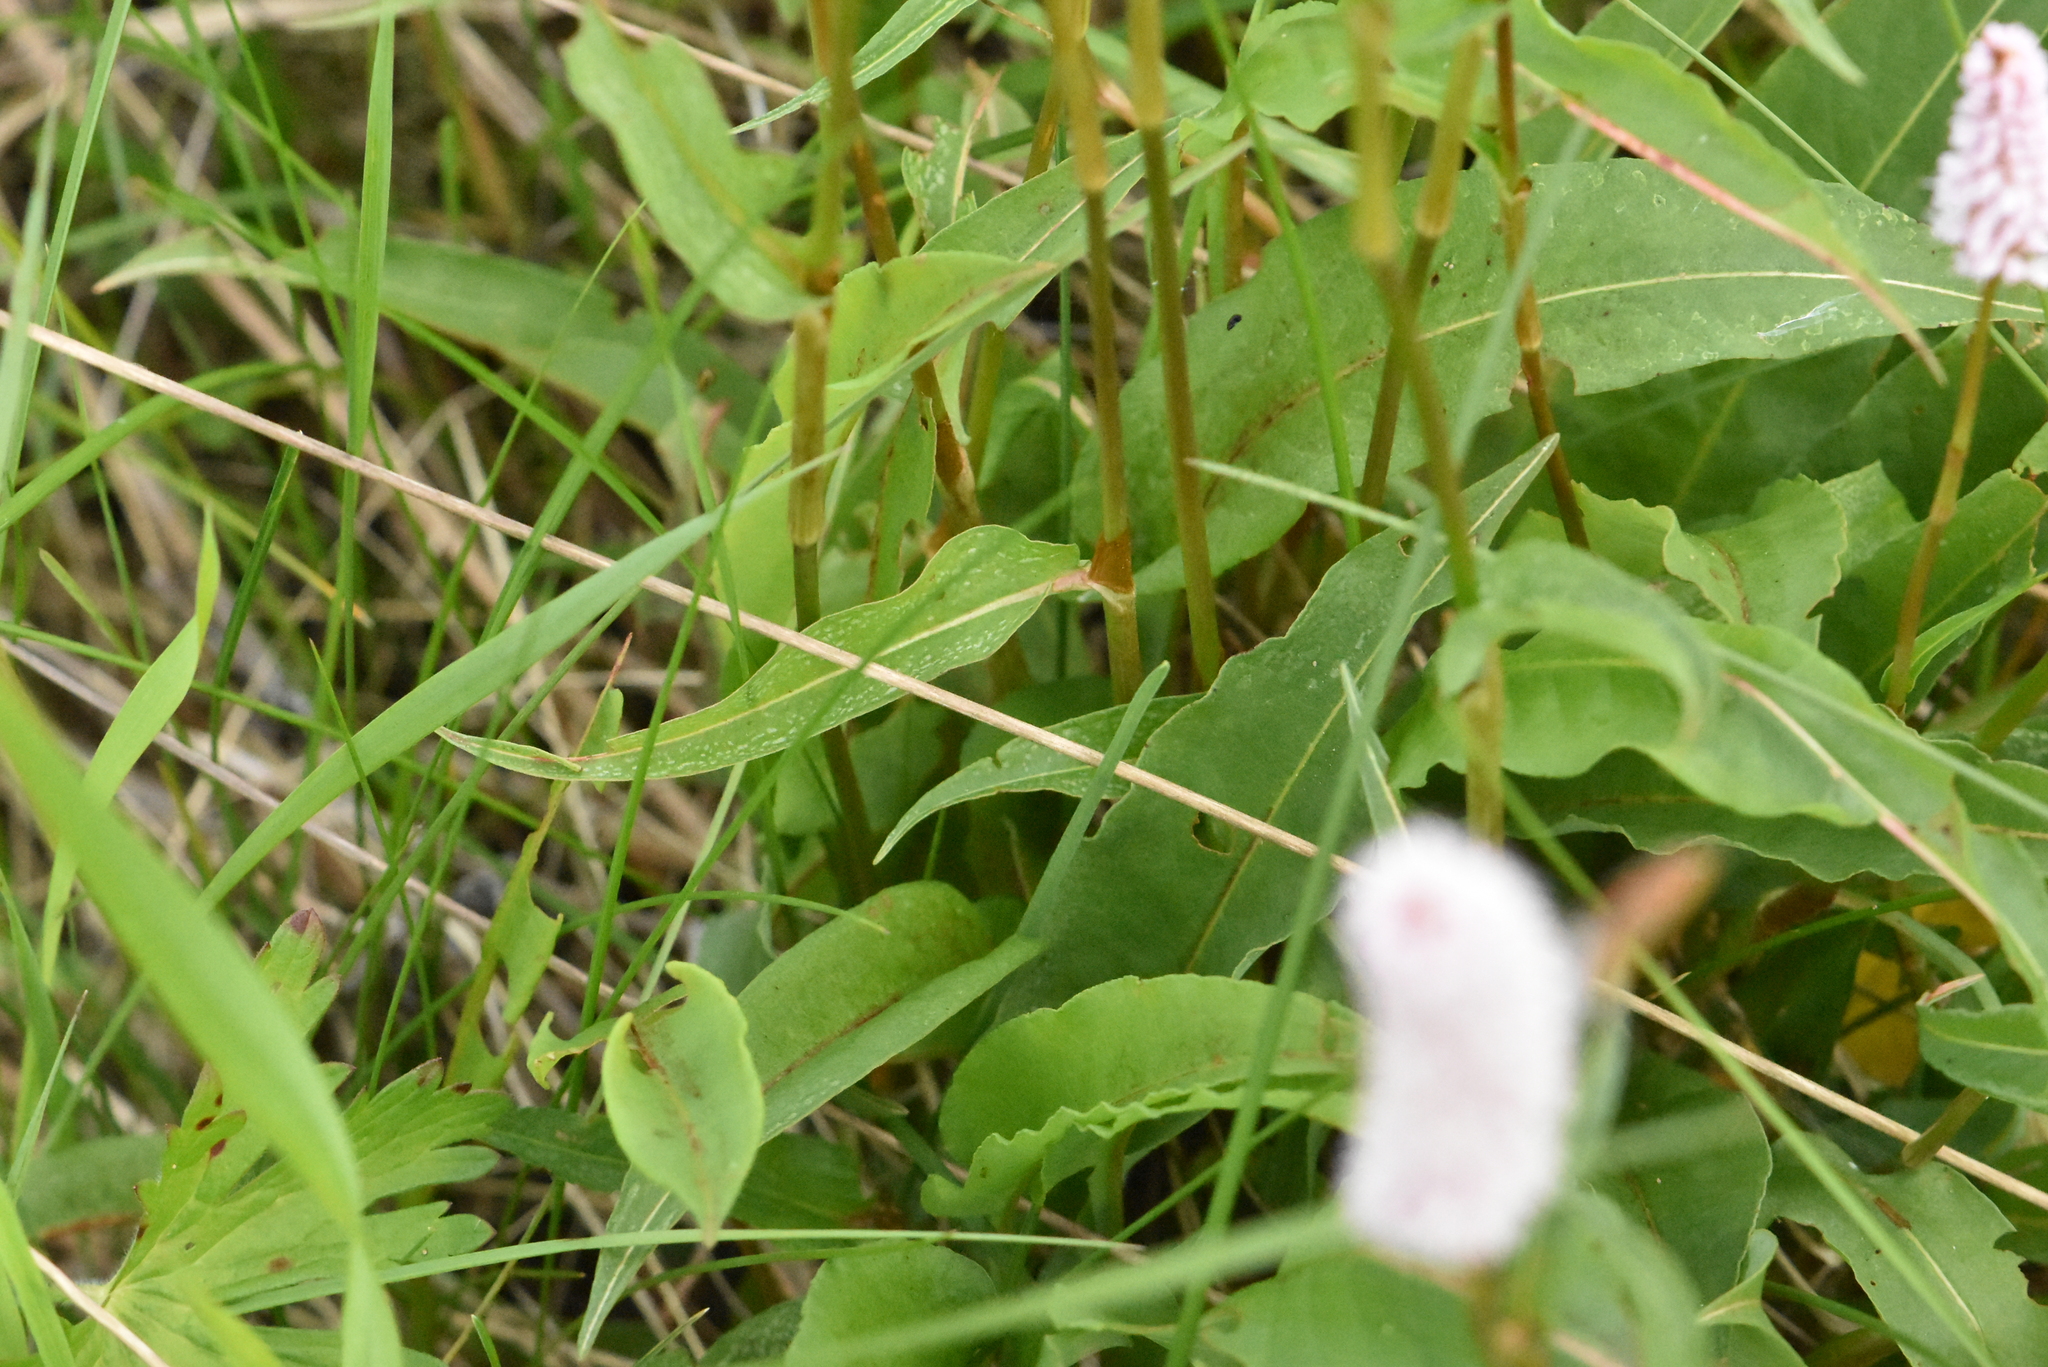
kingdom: Plantae
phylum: Tracheophyta
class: Magnoliopsida
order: Caryophyllales
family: Polygonaceae
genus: Bistorta
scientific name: Bistorta officinalis
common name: Common bistort
